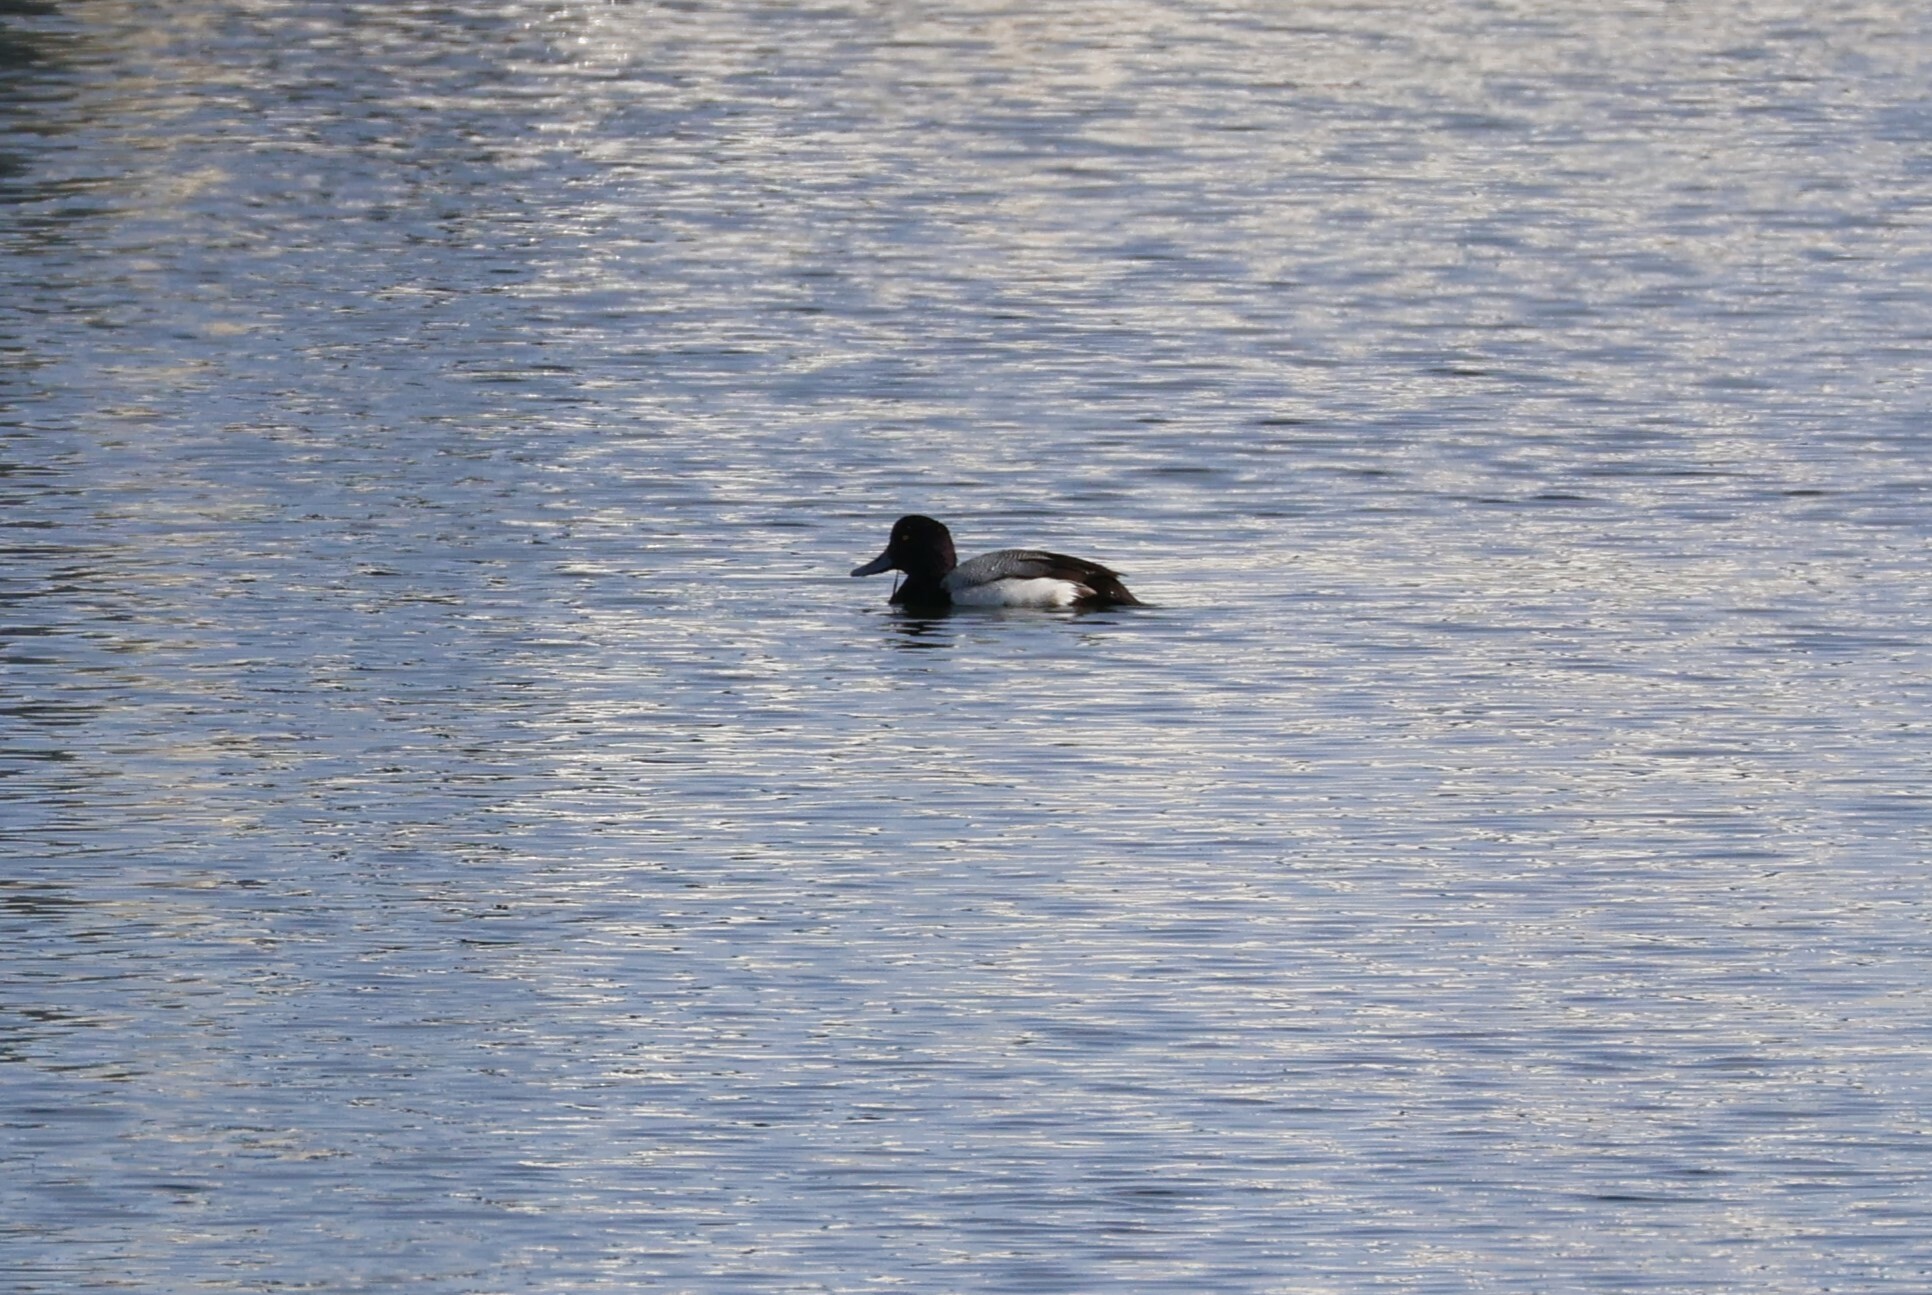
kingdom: Animalia
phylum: Chordata
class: Aves
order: Anseriformes
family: Anatidae
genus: Aythya
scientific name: Aythya affinis
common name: Lesser scaup
